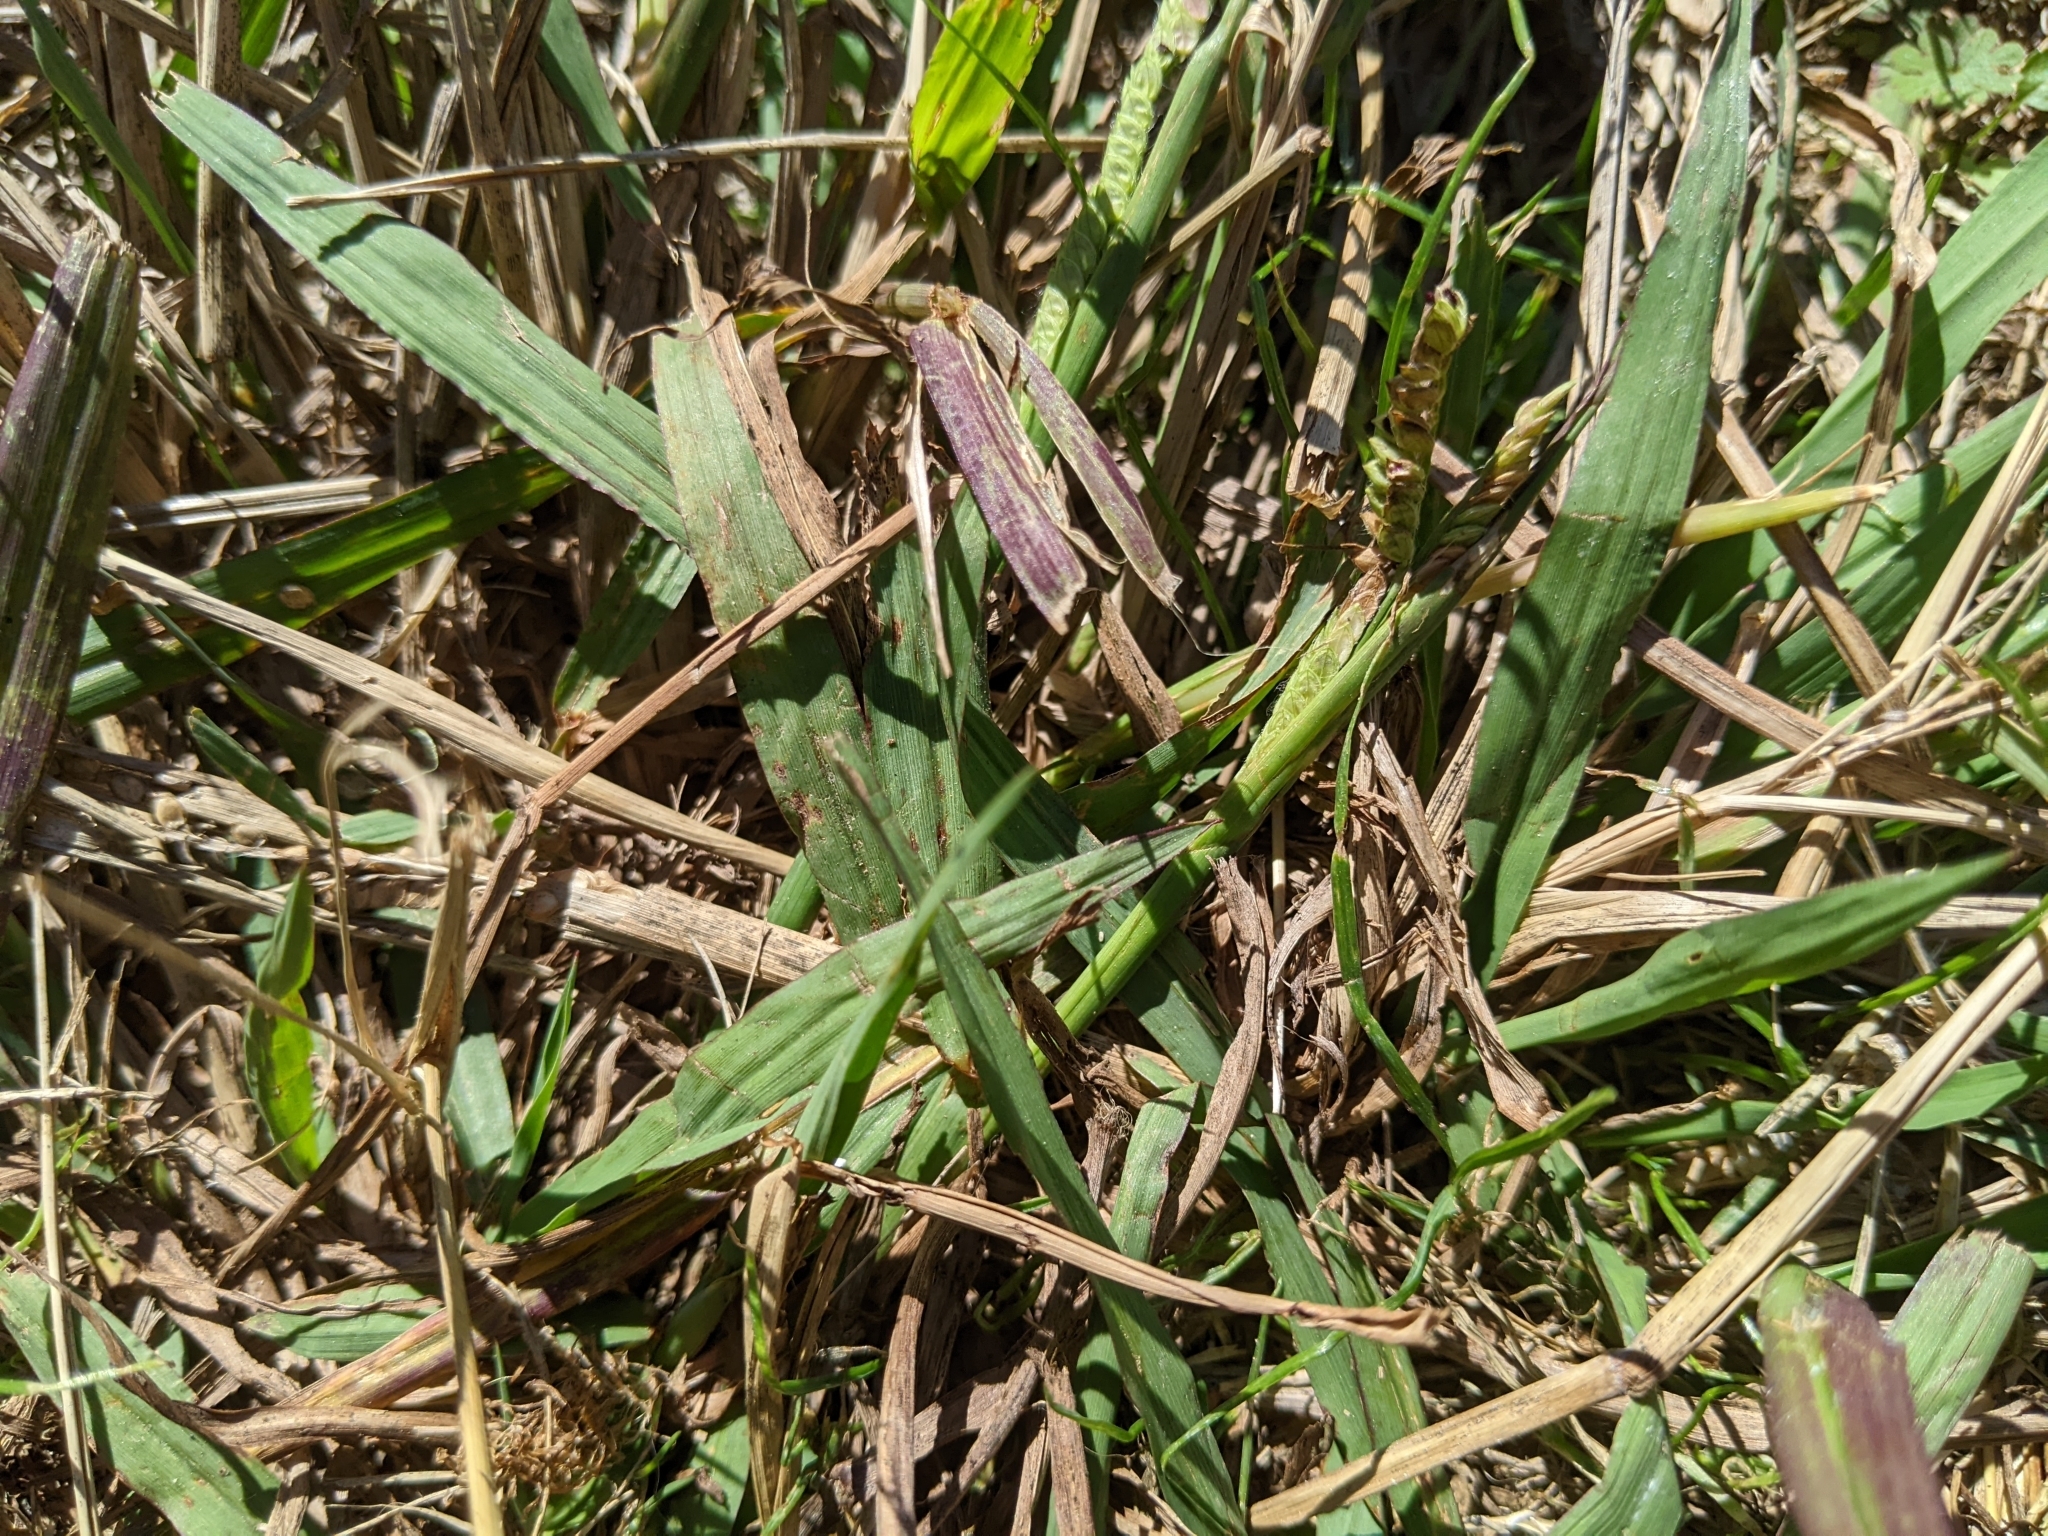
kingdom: Plantae
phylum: Tracheophyta
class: Liliopsida
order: Poales
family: Poaceae
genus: Paspalum
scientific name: Paspalum dilatatum
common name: Dallisgrass
